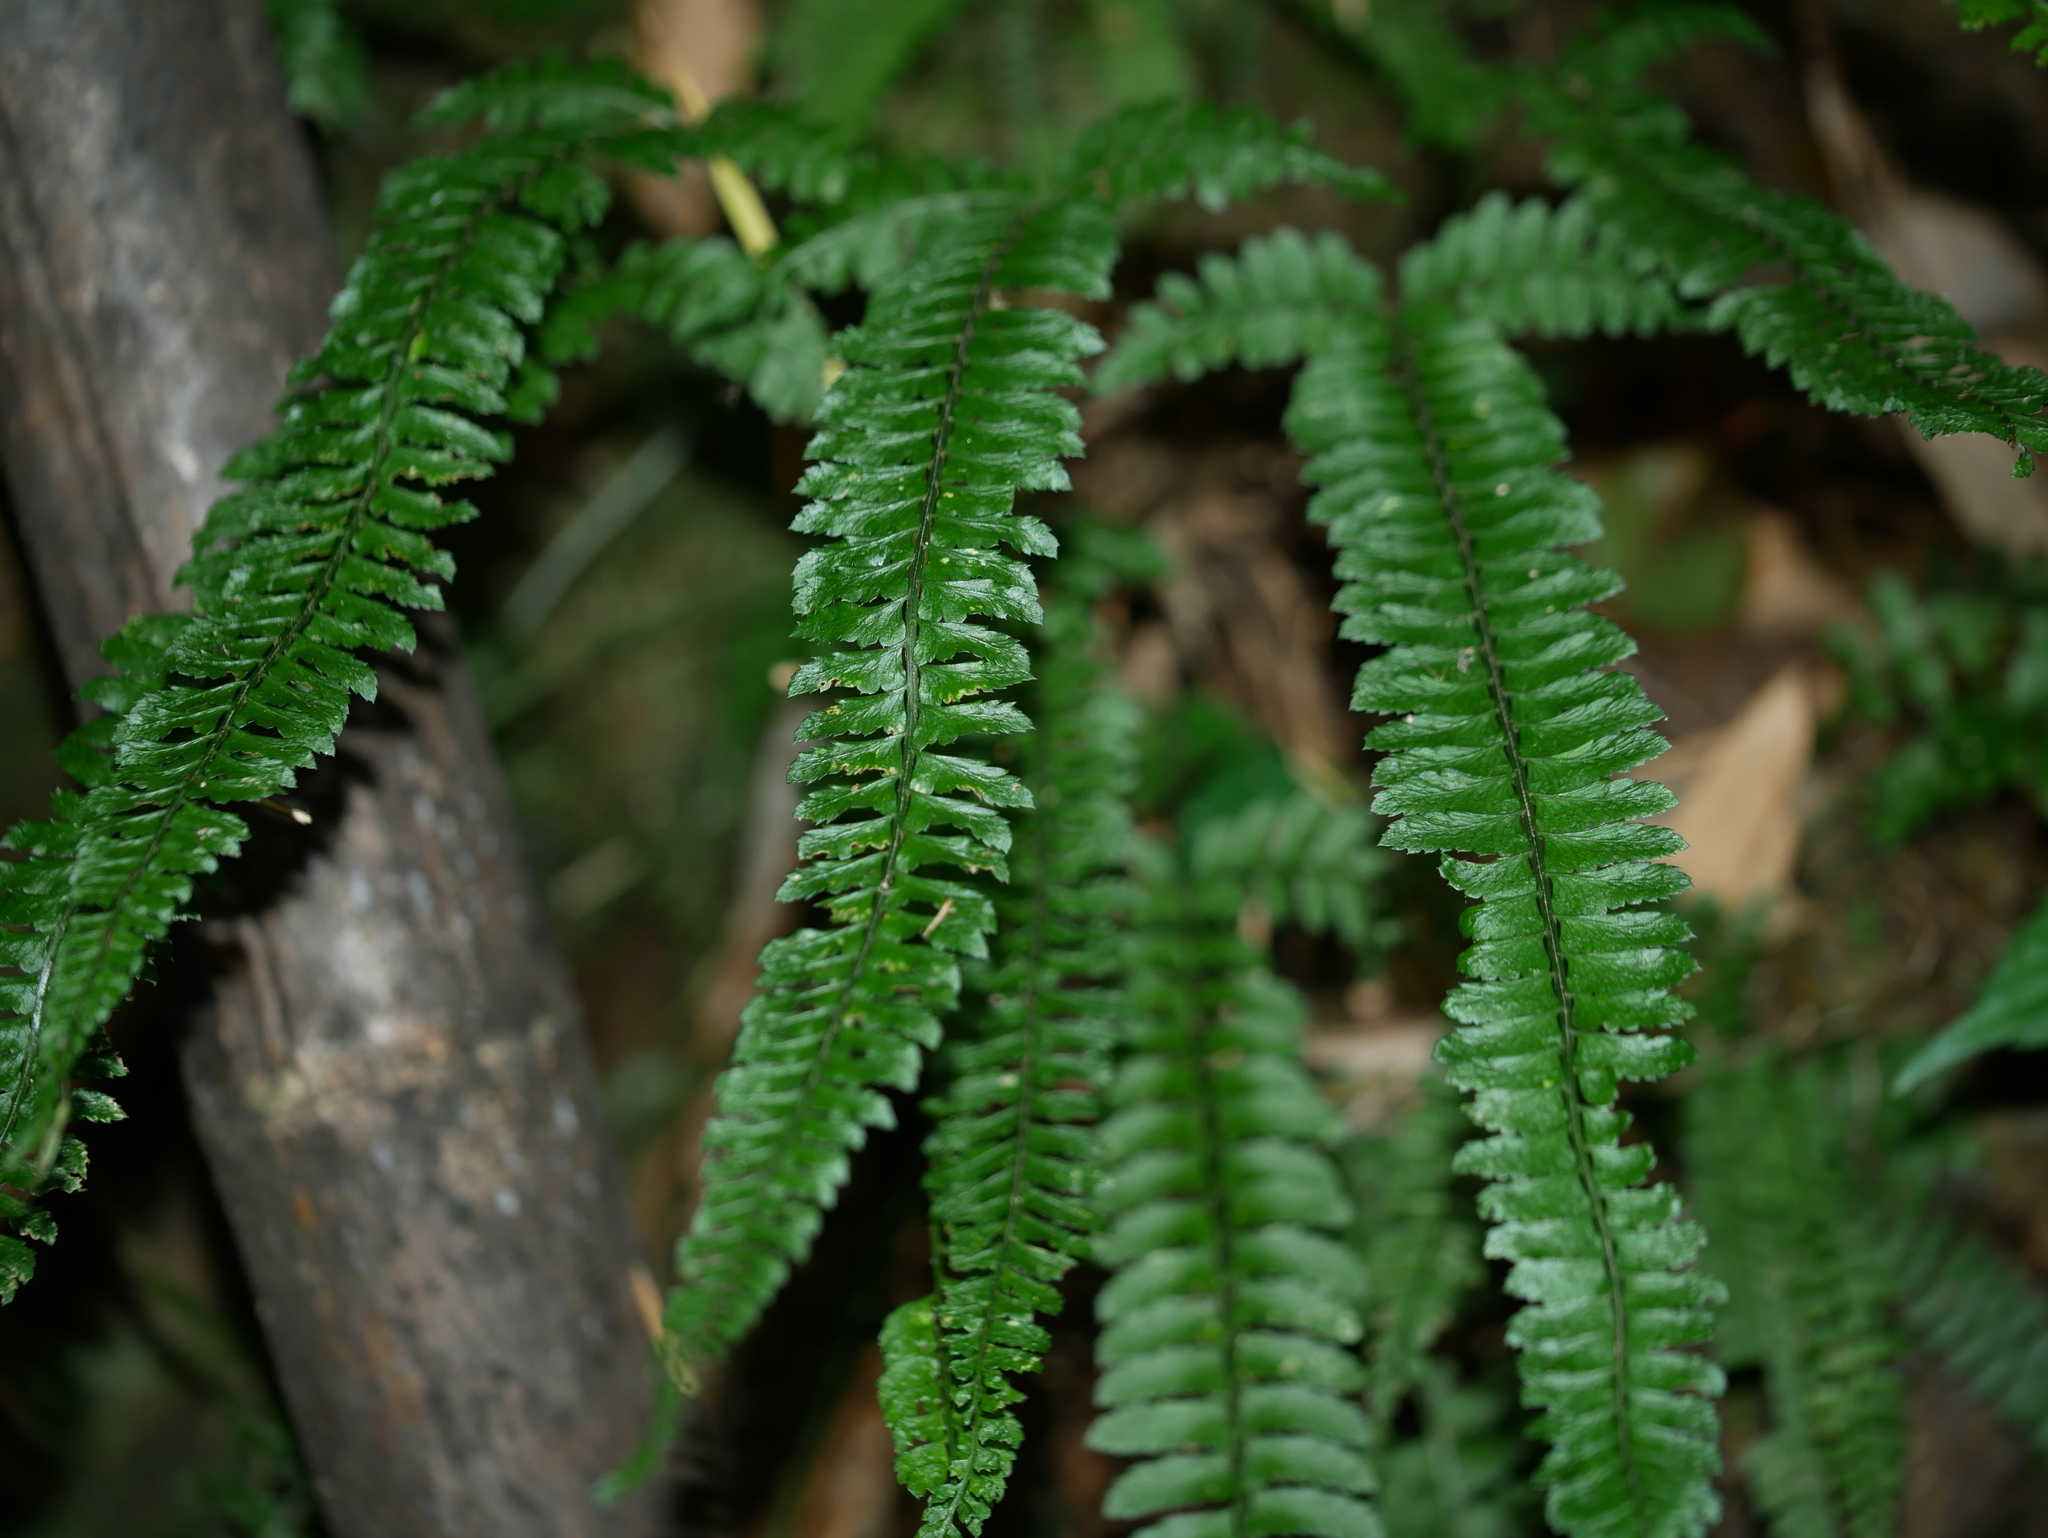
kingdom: Plantae
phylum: Tracheophyta
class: Polypodiopsida
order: Polypodiales
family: Dryopteridaceae
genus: Polystichum
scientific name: Polystichum hancockii
